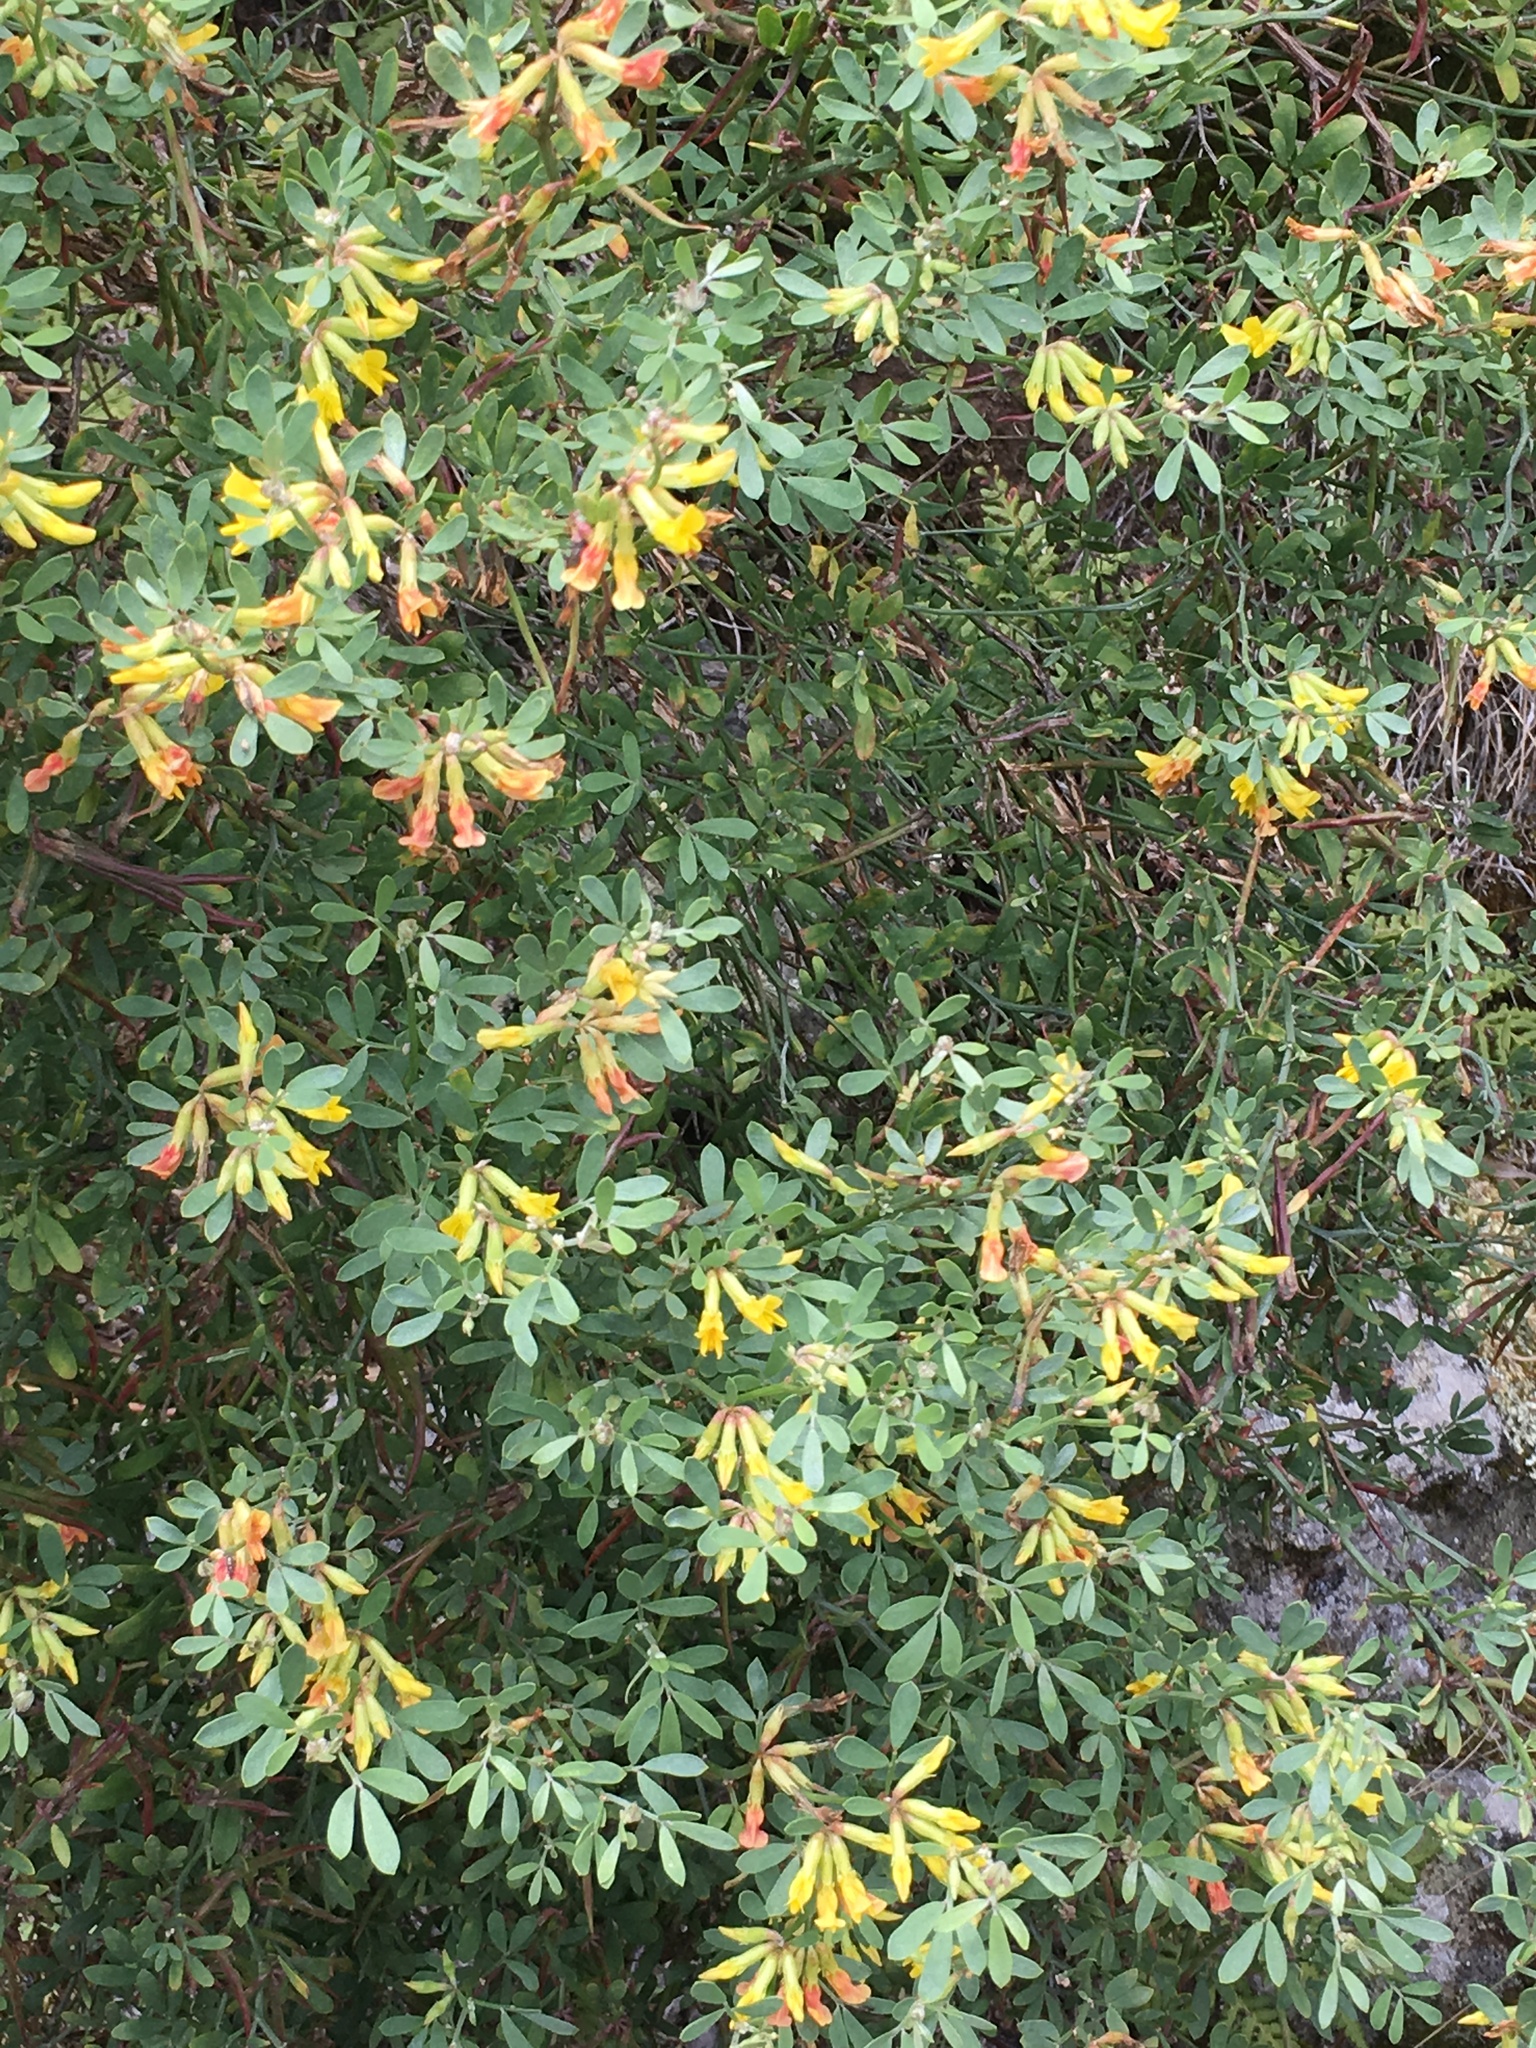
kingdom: Plantae
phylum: Tracheophyta
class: Magnoliopsida
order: Fabales
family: Fabaceae
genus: Acmispon
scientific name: Acmispon dendroideus
